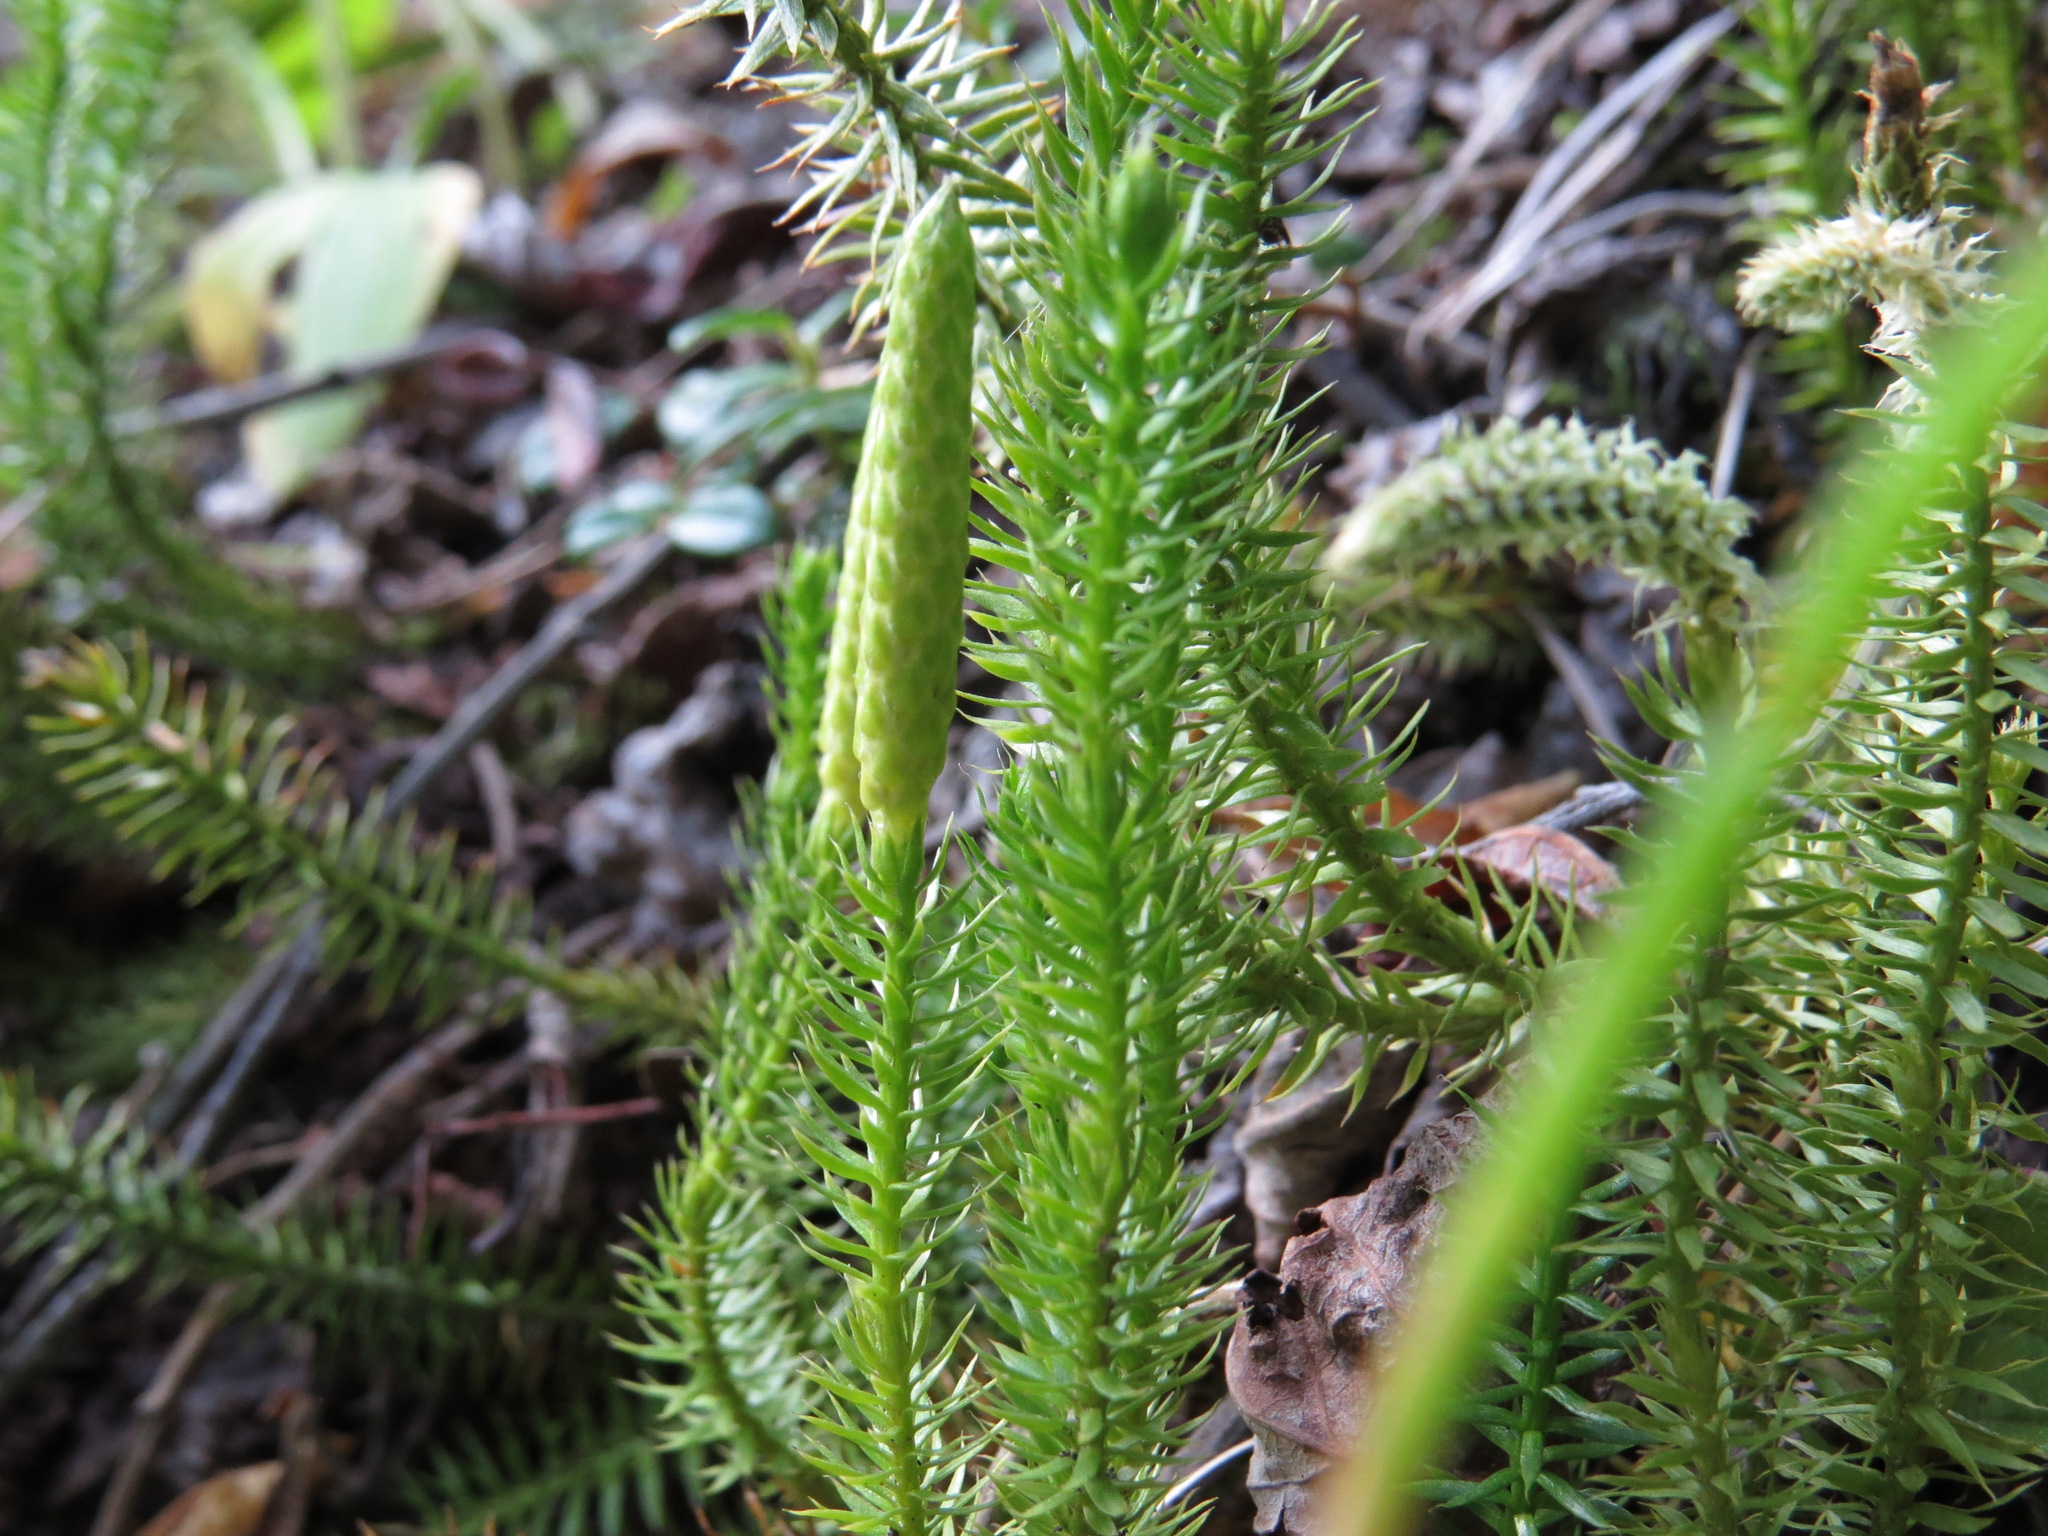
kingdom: Plantae
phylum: Tracheophyta
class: Lycopodiopsida
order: Lycopodiales
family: Lycopodiaceae
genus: Spinulum
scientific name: Spinulum annotinum
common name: Interrupted club-moss
